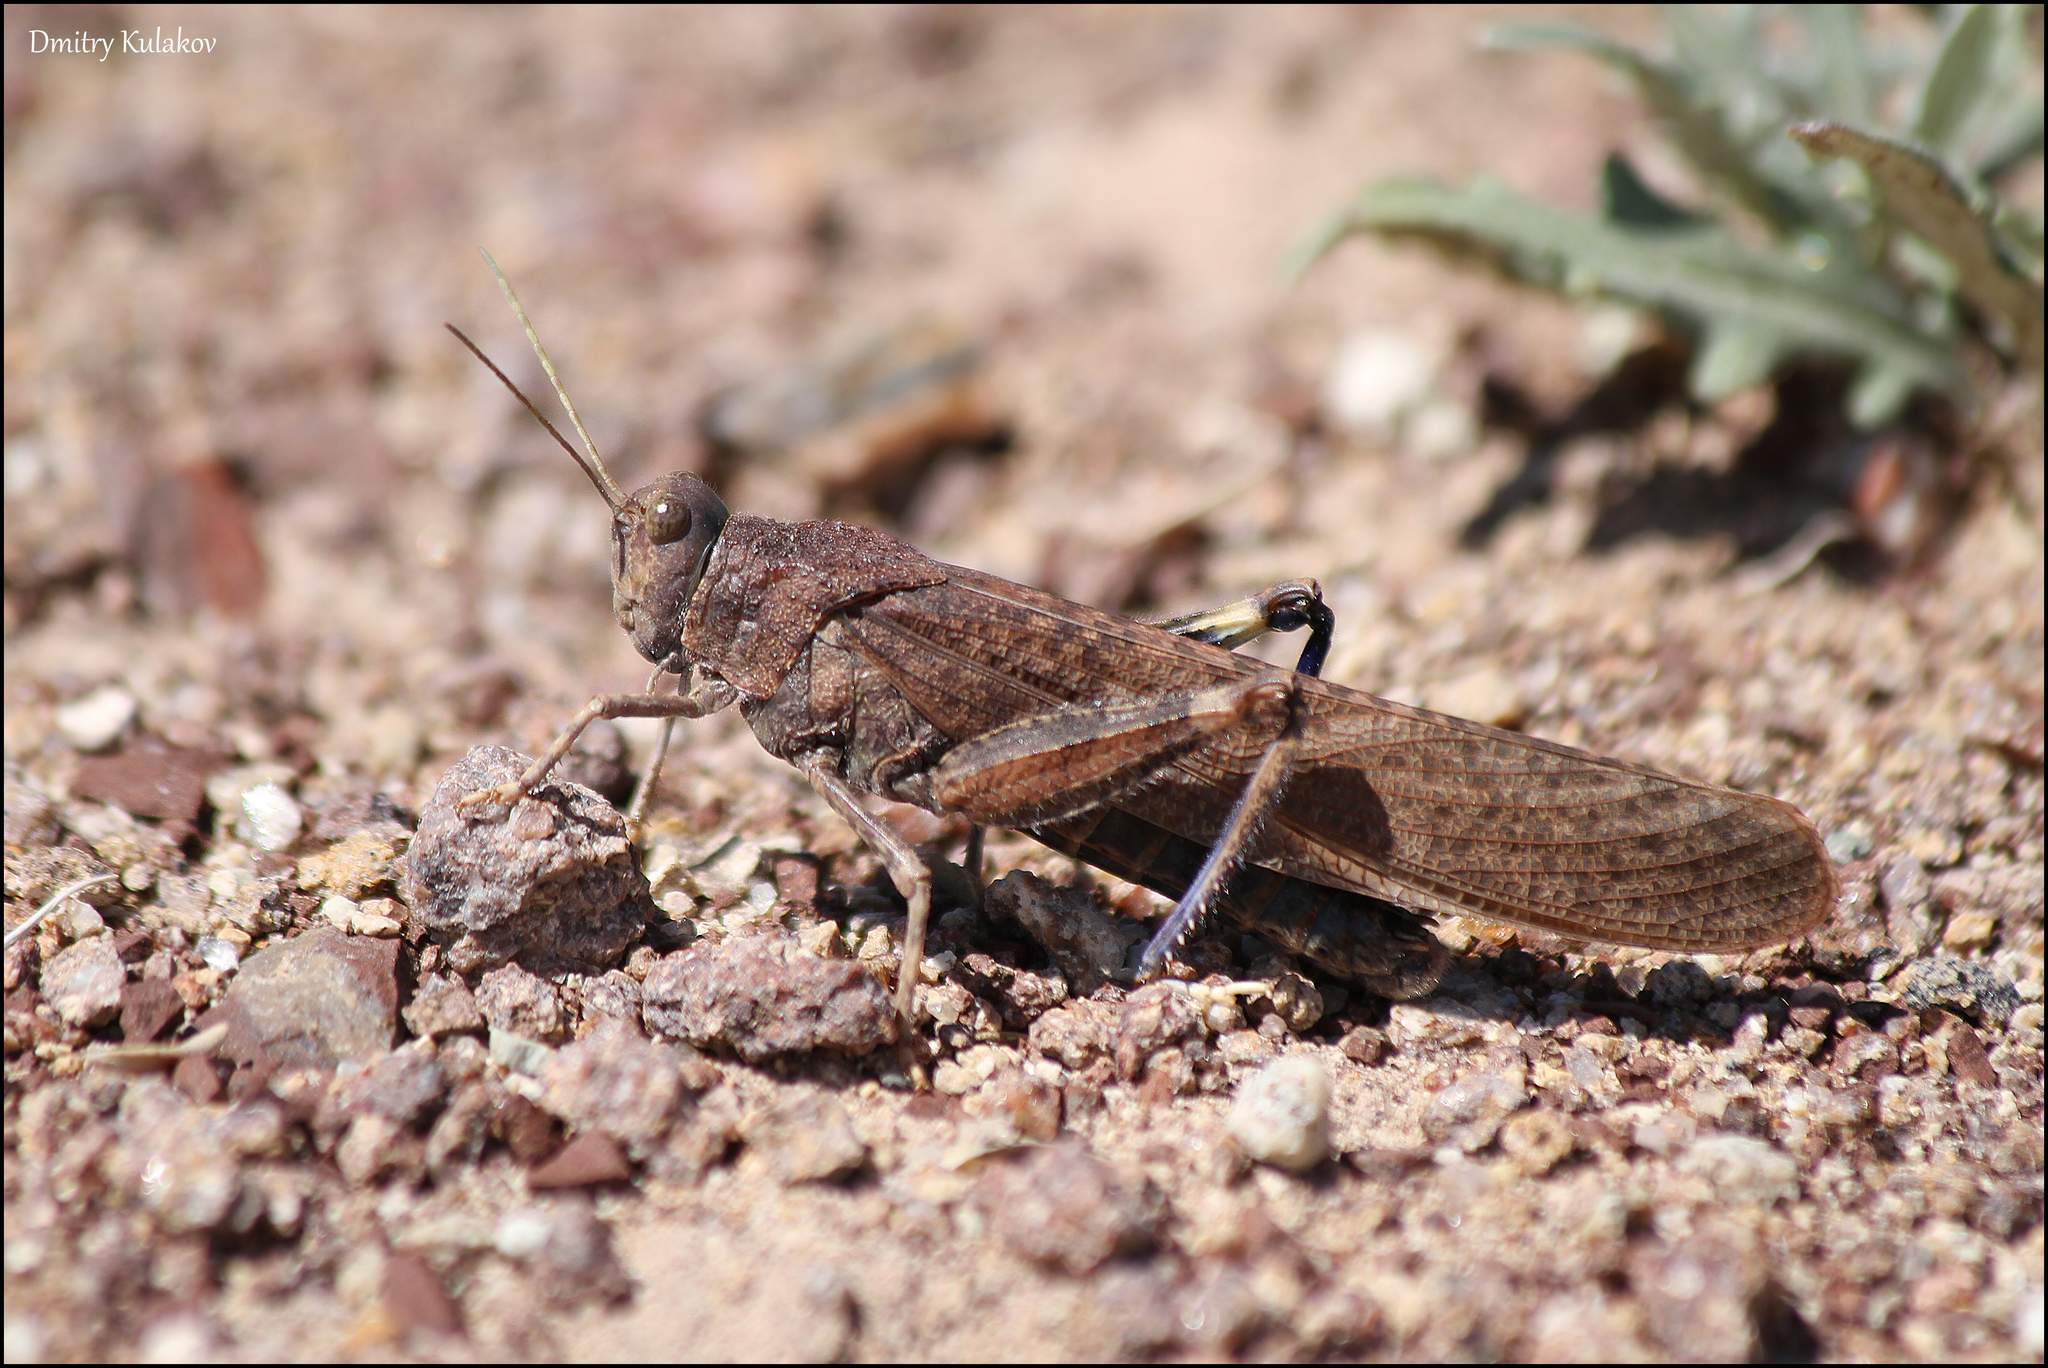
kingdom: Animalia
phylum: Arthropoda
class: Insecta
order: Orthoptera
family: Acrididae
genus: Bryodema
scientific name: Bryodema gebleri
